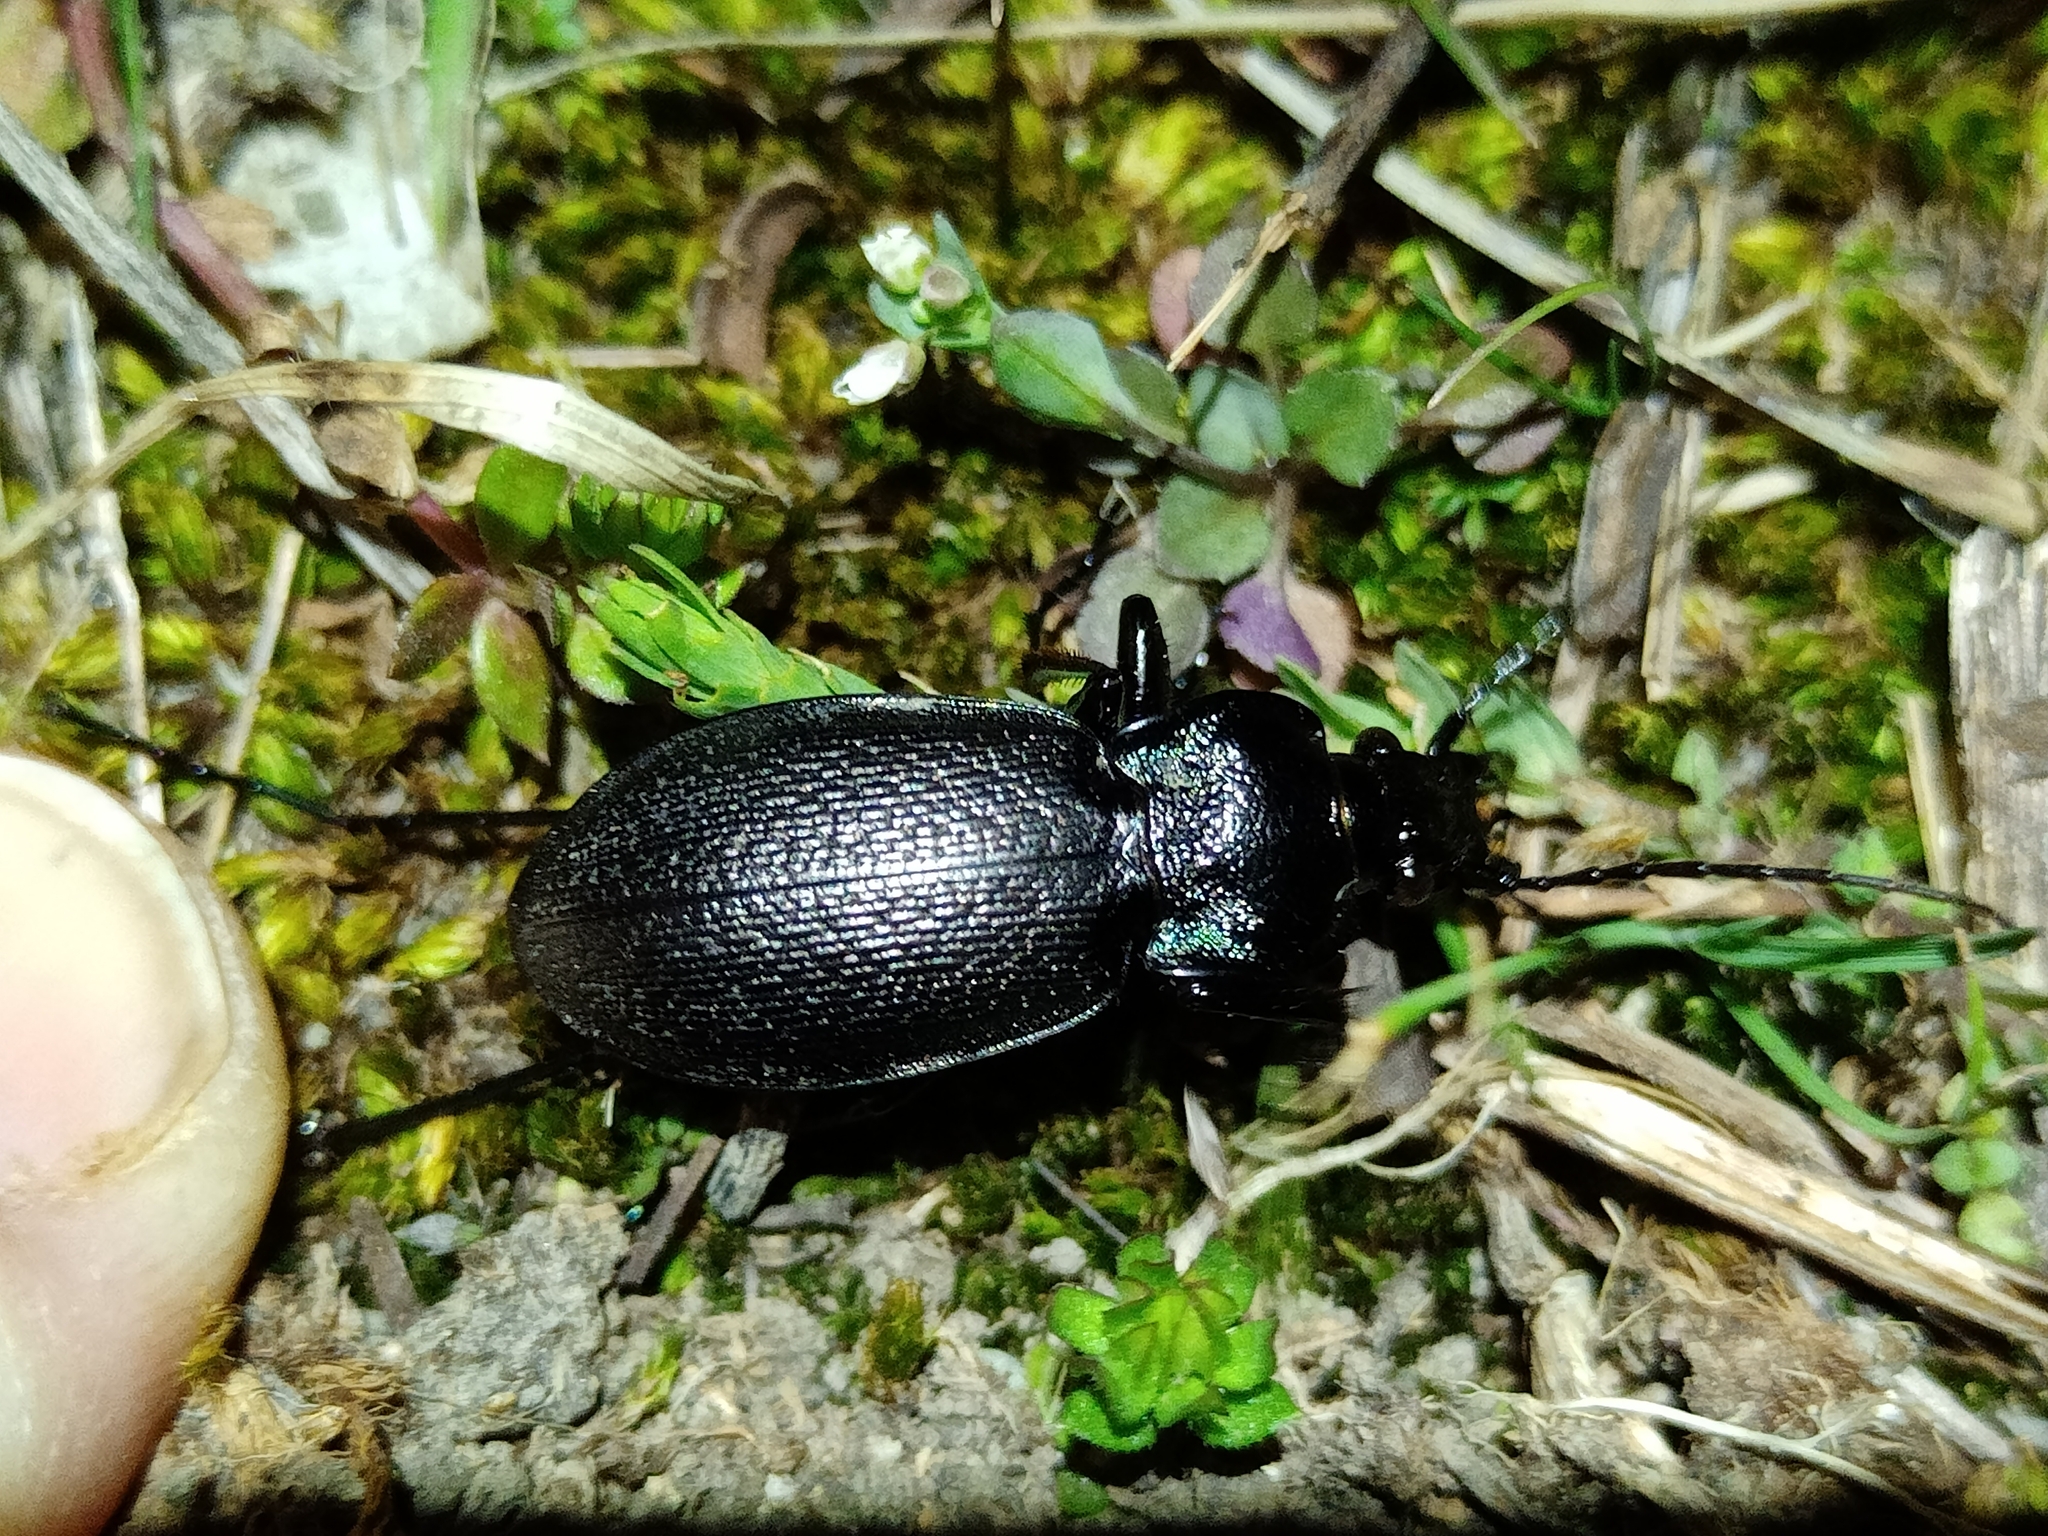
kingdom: Animalia
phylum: Arthropoda
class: Insecta
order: Coleoptera
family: Carabidae
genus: Carabus
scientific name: Carabus rossii
